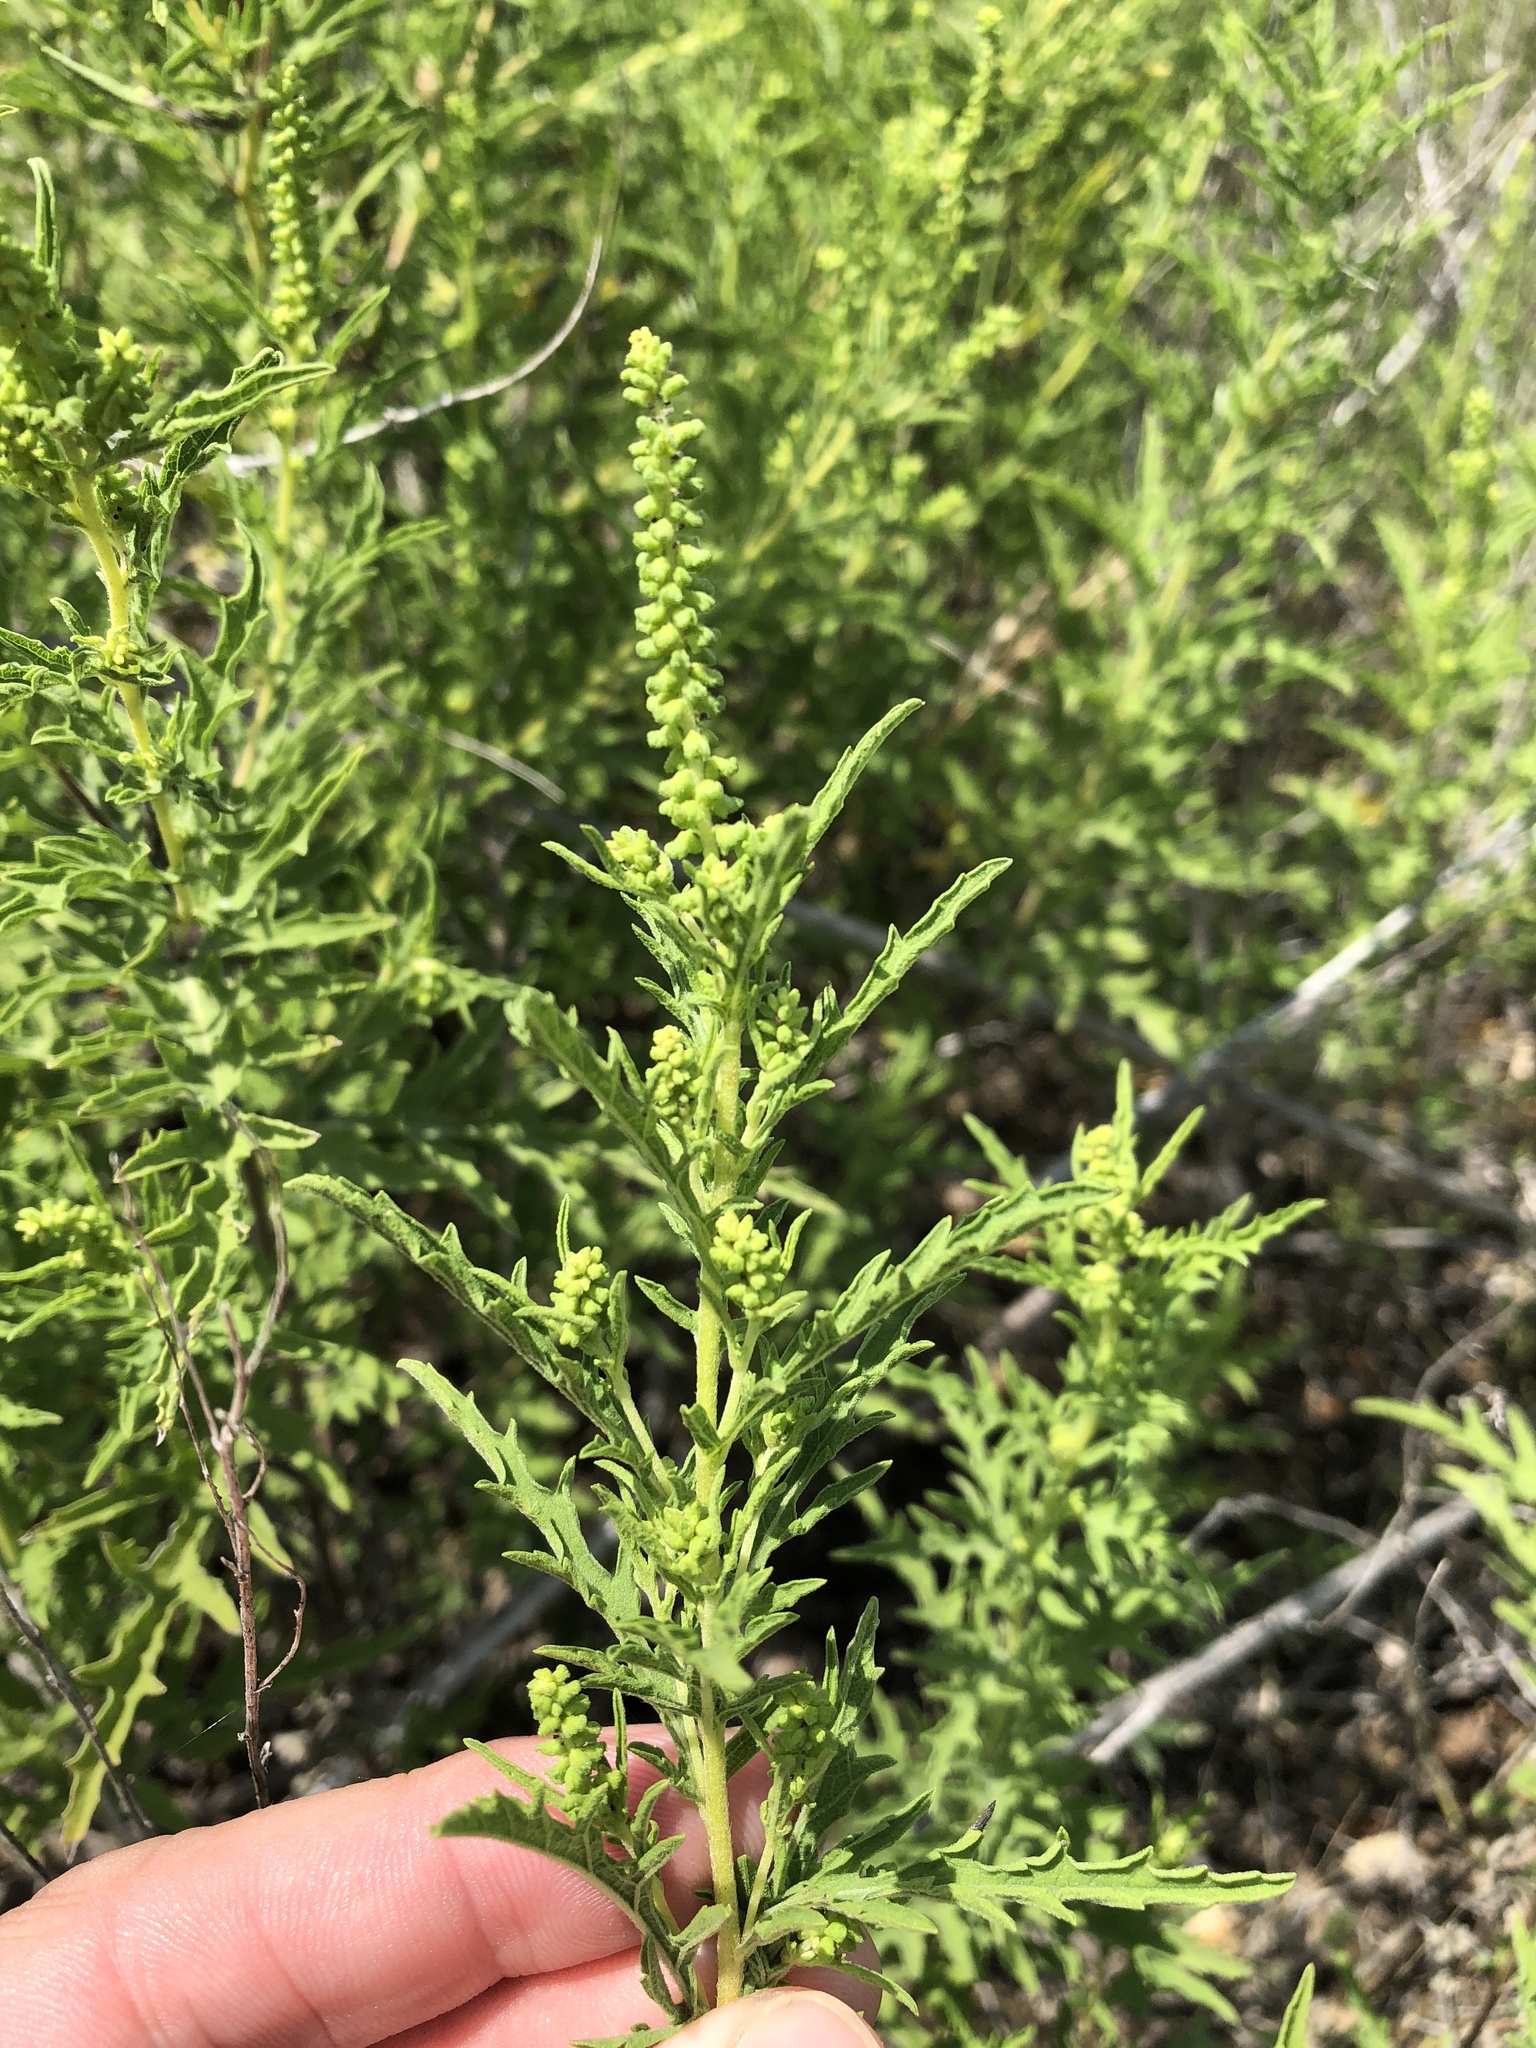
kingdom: Plantae
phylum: Tracheophyta
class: Magnoliopsida
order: Asterales
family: Asteraceae
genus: Ambrosia
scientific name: Ambrosia psilostachya
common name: Perennial ragweed
